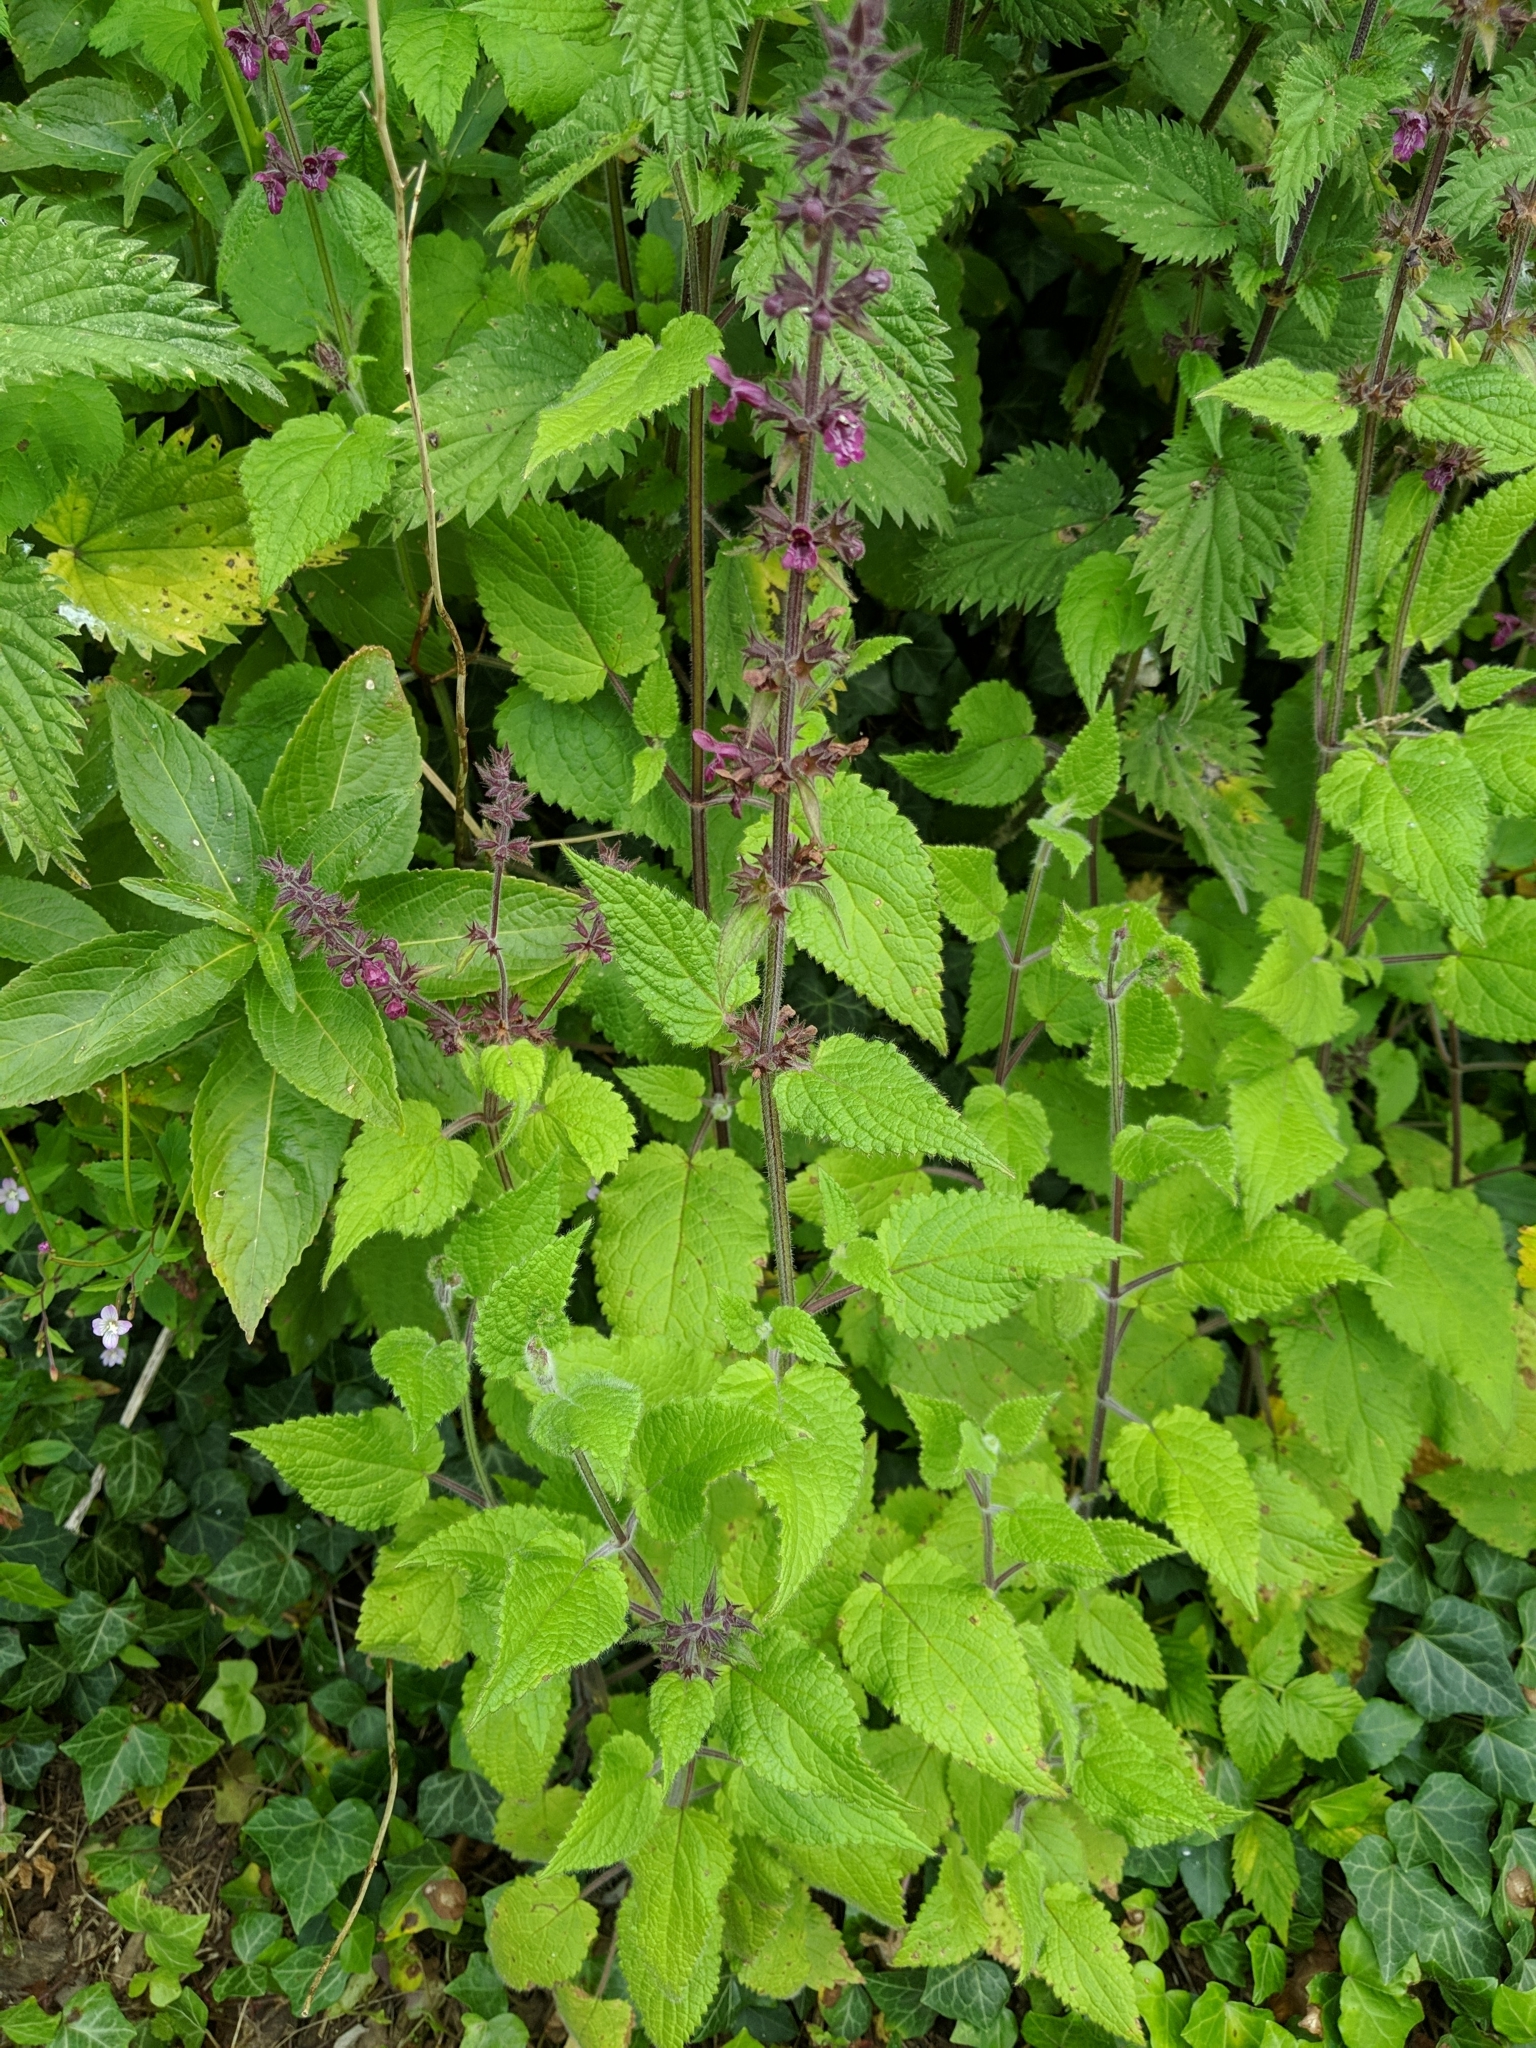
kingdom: Plantae
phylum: Tracheophyta
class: Magnoliopsida
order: Lamiales
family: Lamiaceae
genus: Stachys
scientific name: Stachys sylvatica
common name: Hedge woundwort
